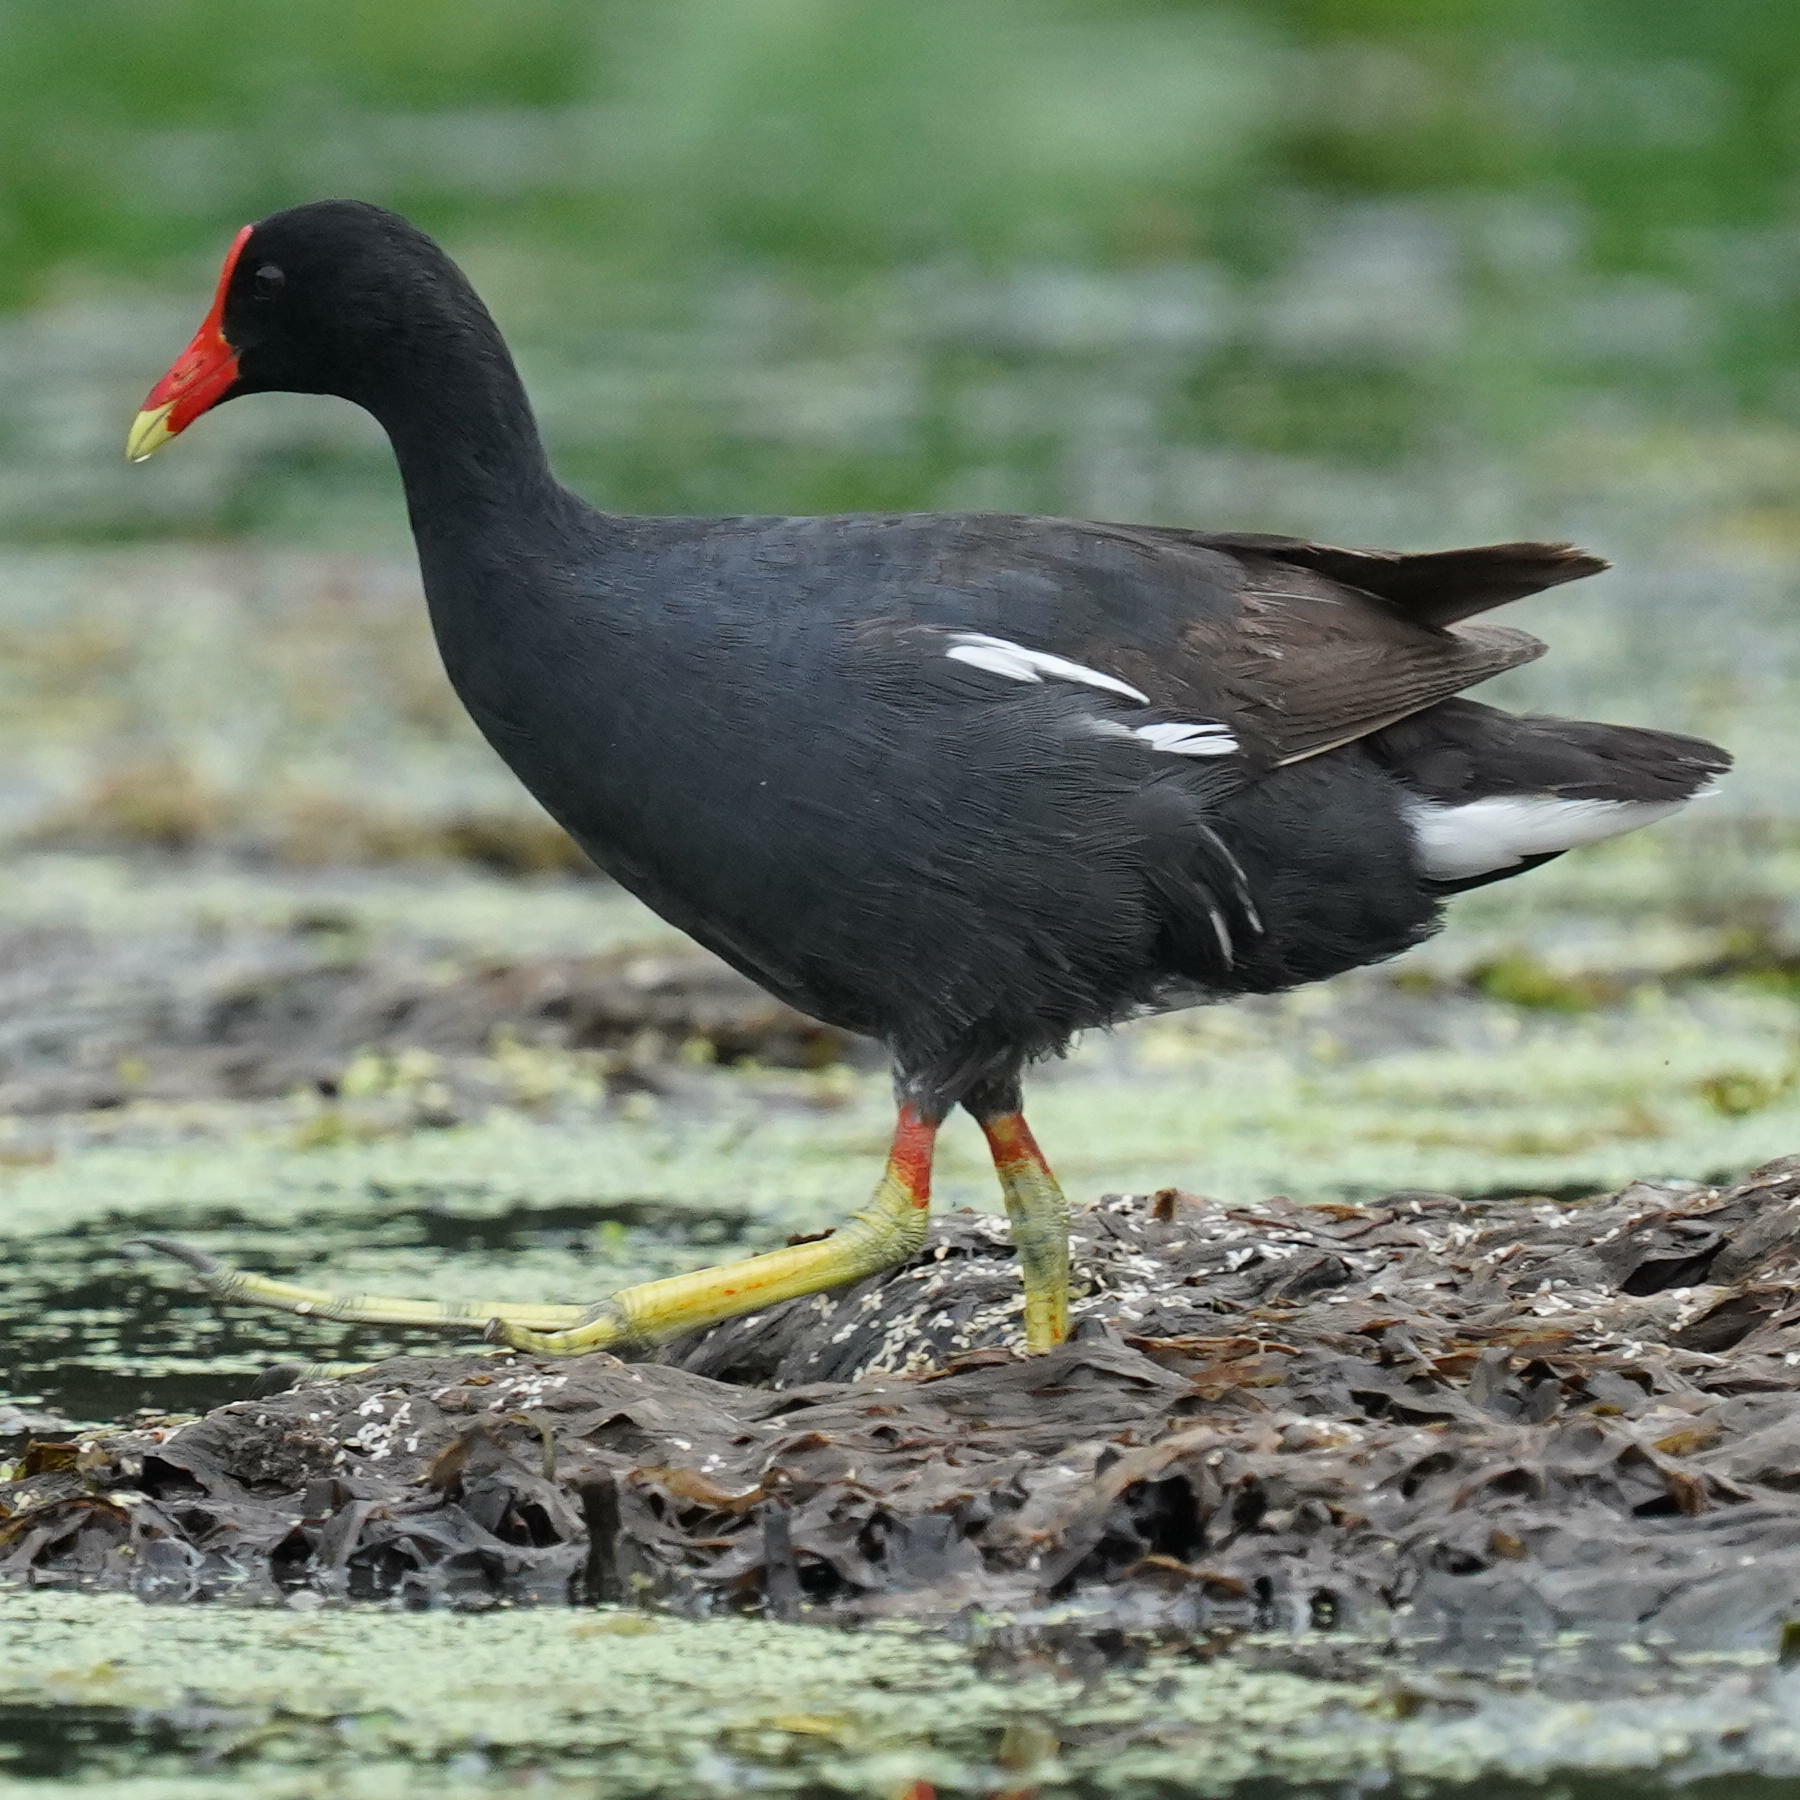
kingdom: Animalia
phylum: Chordata
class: Aves
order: Gruiformes
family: Rallidae
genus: Gallinula
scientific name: Gallinula chloropus
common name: Common moorhen
